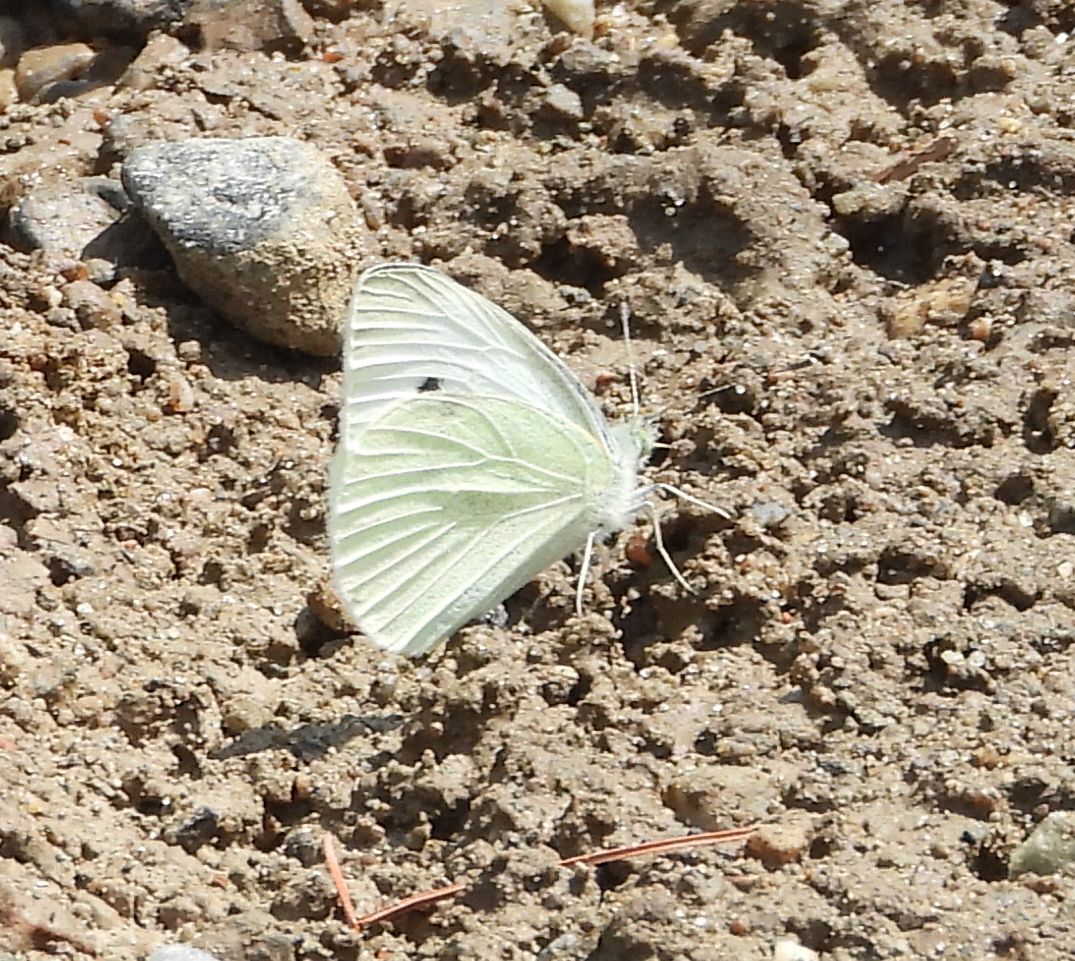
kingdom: Animalia
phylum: Arthropoda
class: Insecta
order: Lepidoptera
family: Pieridae
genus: Pieris
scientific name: Pieris rapae
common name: Small white
